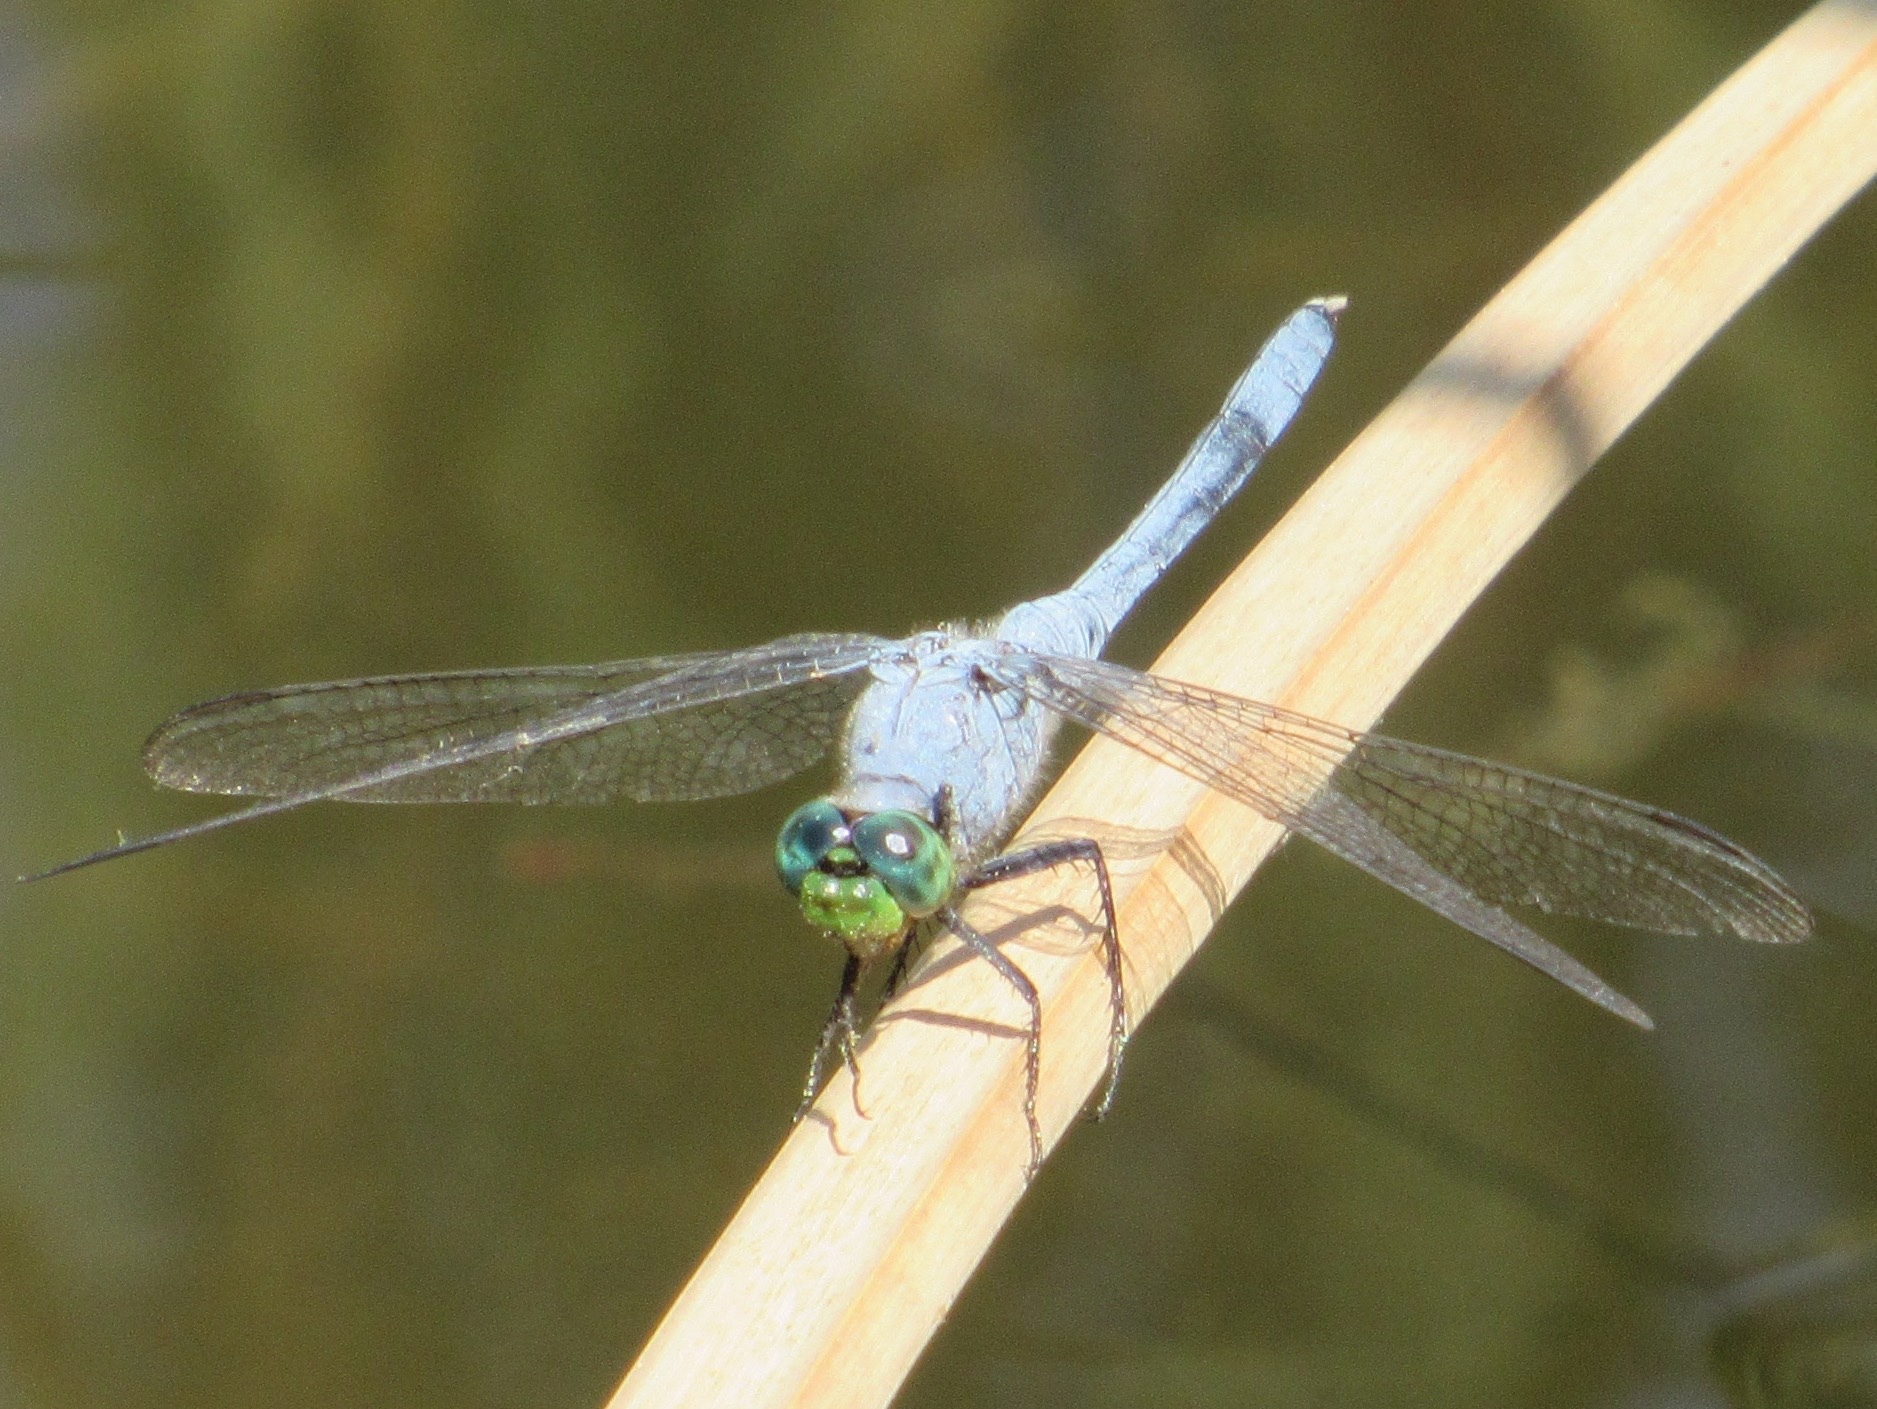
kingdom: Animalia
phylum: Arthropoda
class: Insecta
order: Odonata
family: Libellulidae
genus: Erythemis
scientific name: Erythemis simplicicollis
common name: Eastern pondhawk
